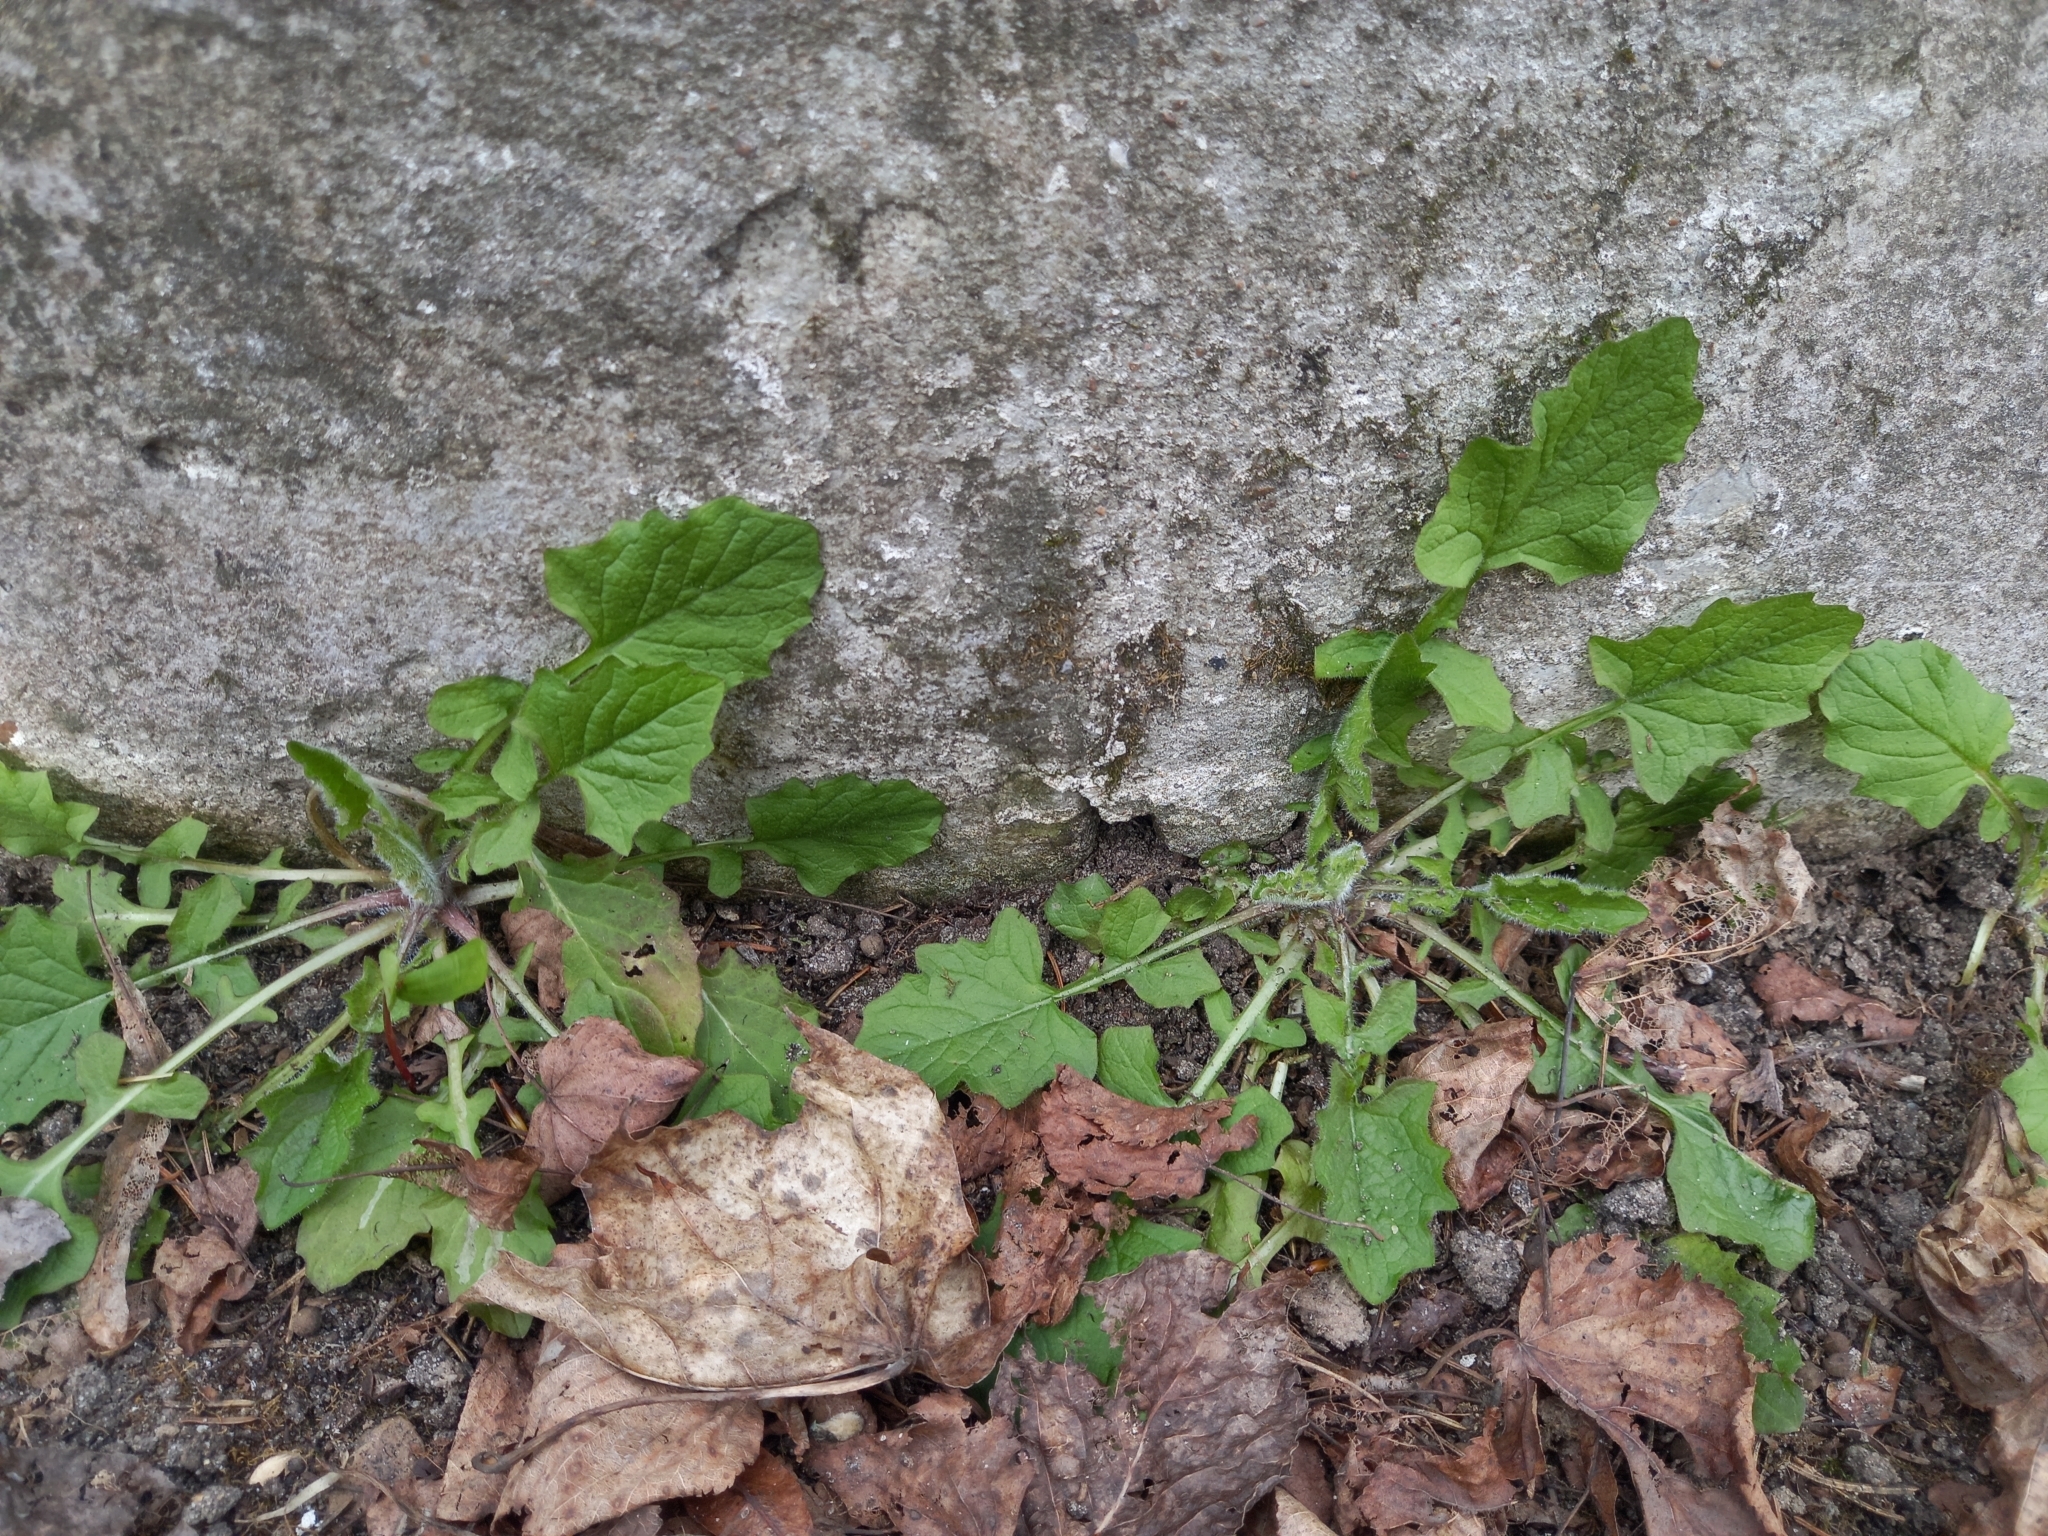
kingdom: Plantae
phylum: Tracheophyta
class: Magnoliopsida
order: Asterales
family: Asteraceae
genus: Lapsana
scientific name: Lapsana communis
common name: Nipplewort
